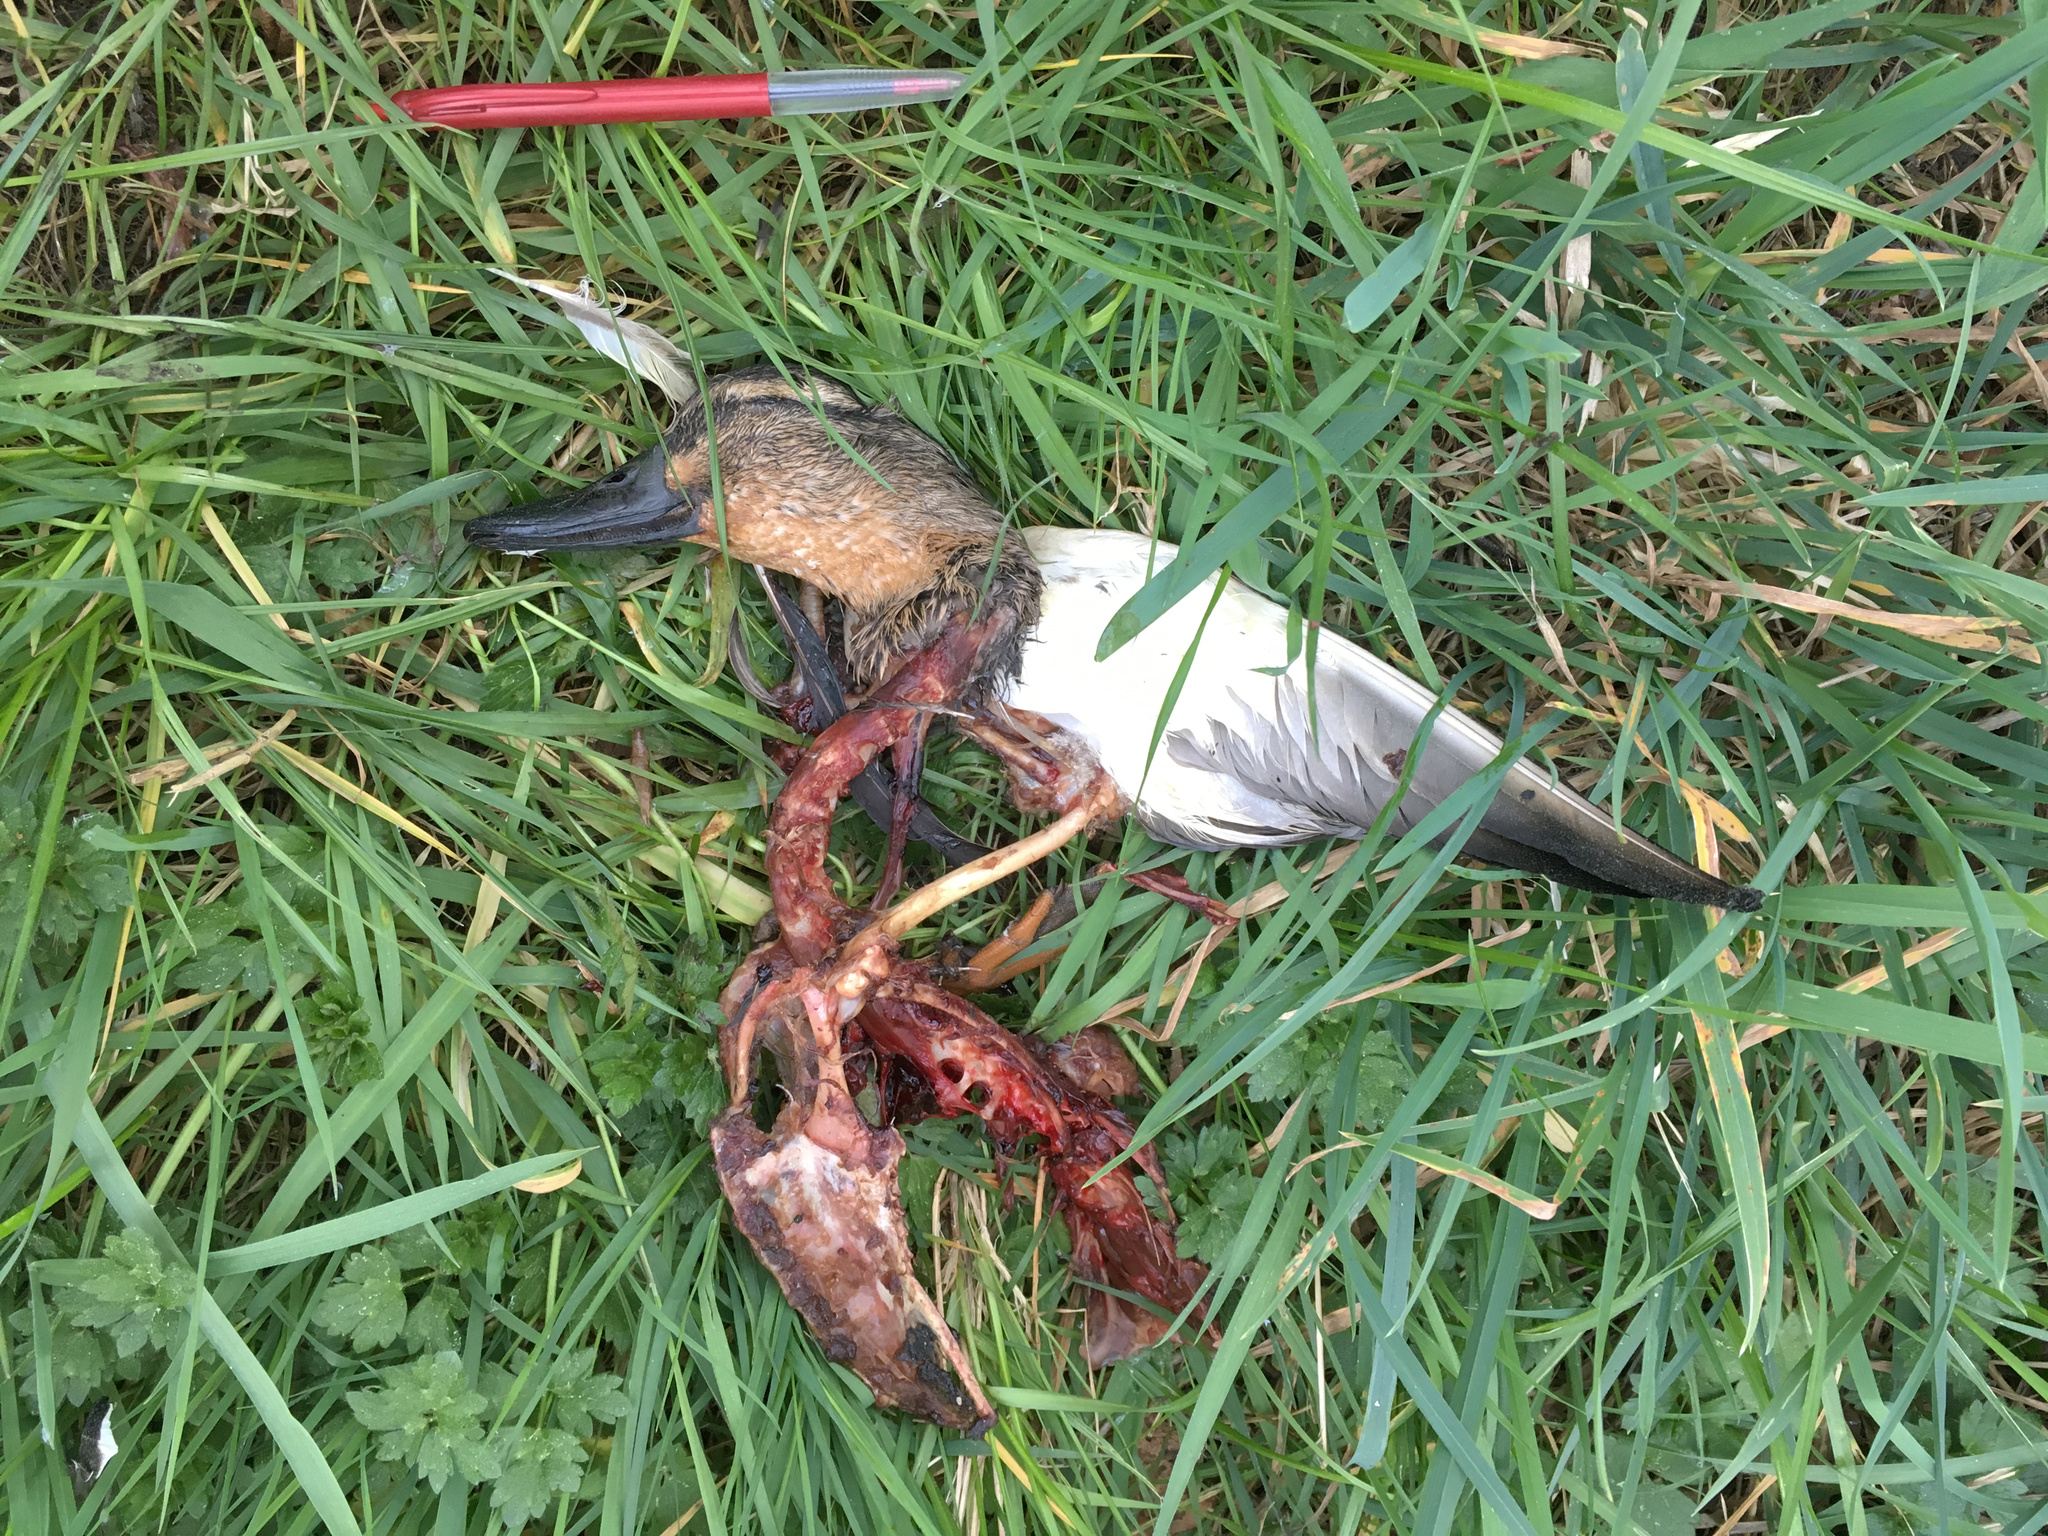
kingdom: Animalia
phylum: Chordata
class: Aves
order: Anseriformes
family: Anatidae
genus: Anas
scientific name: Anas
